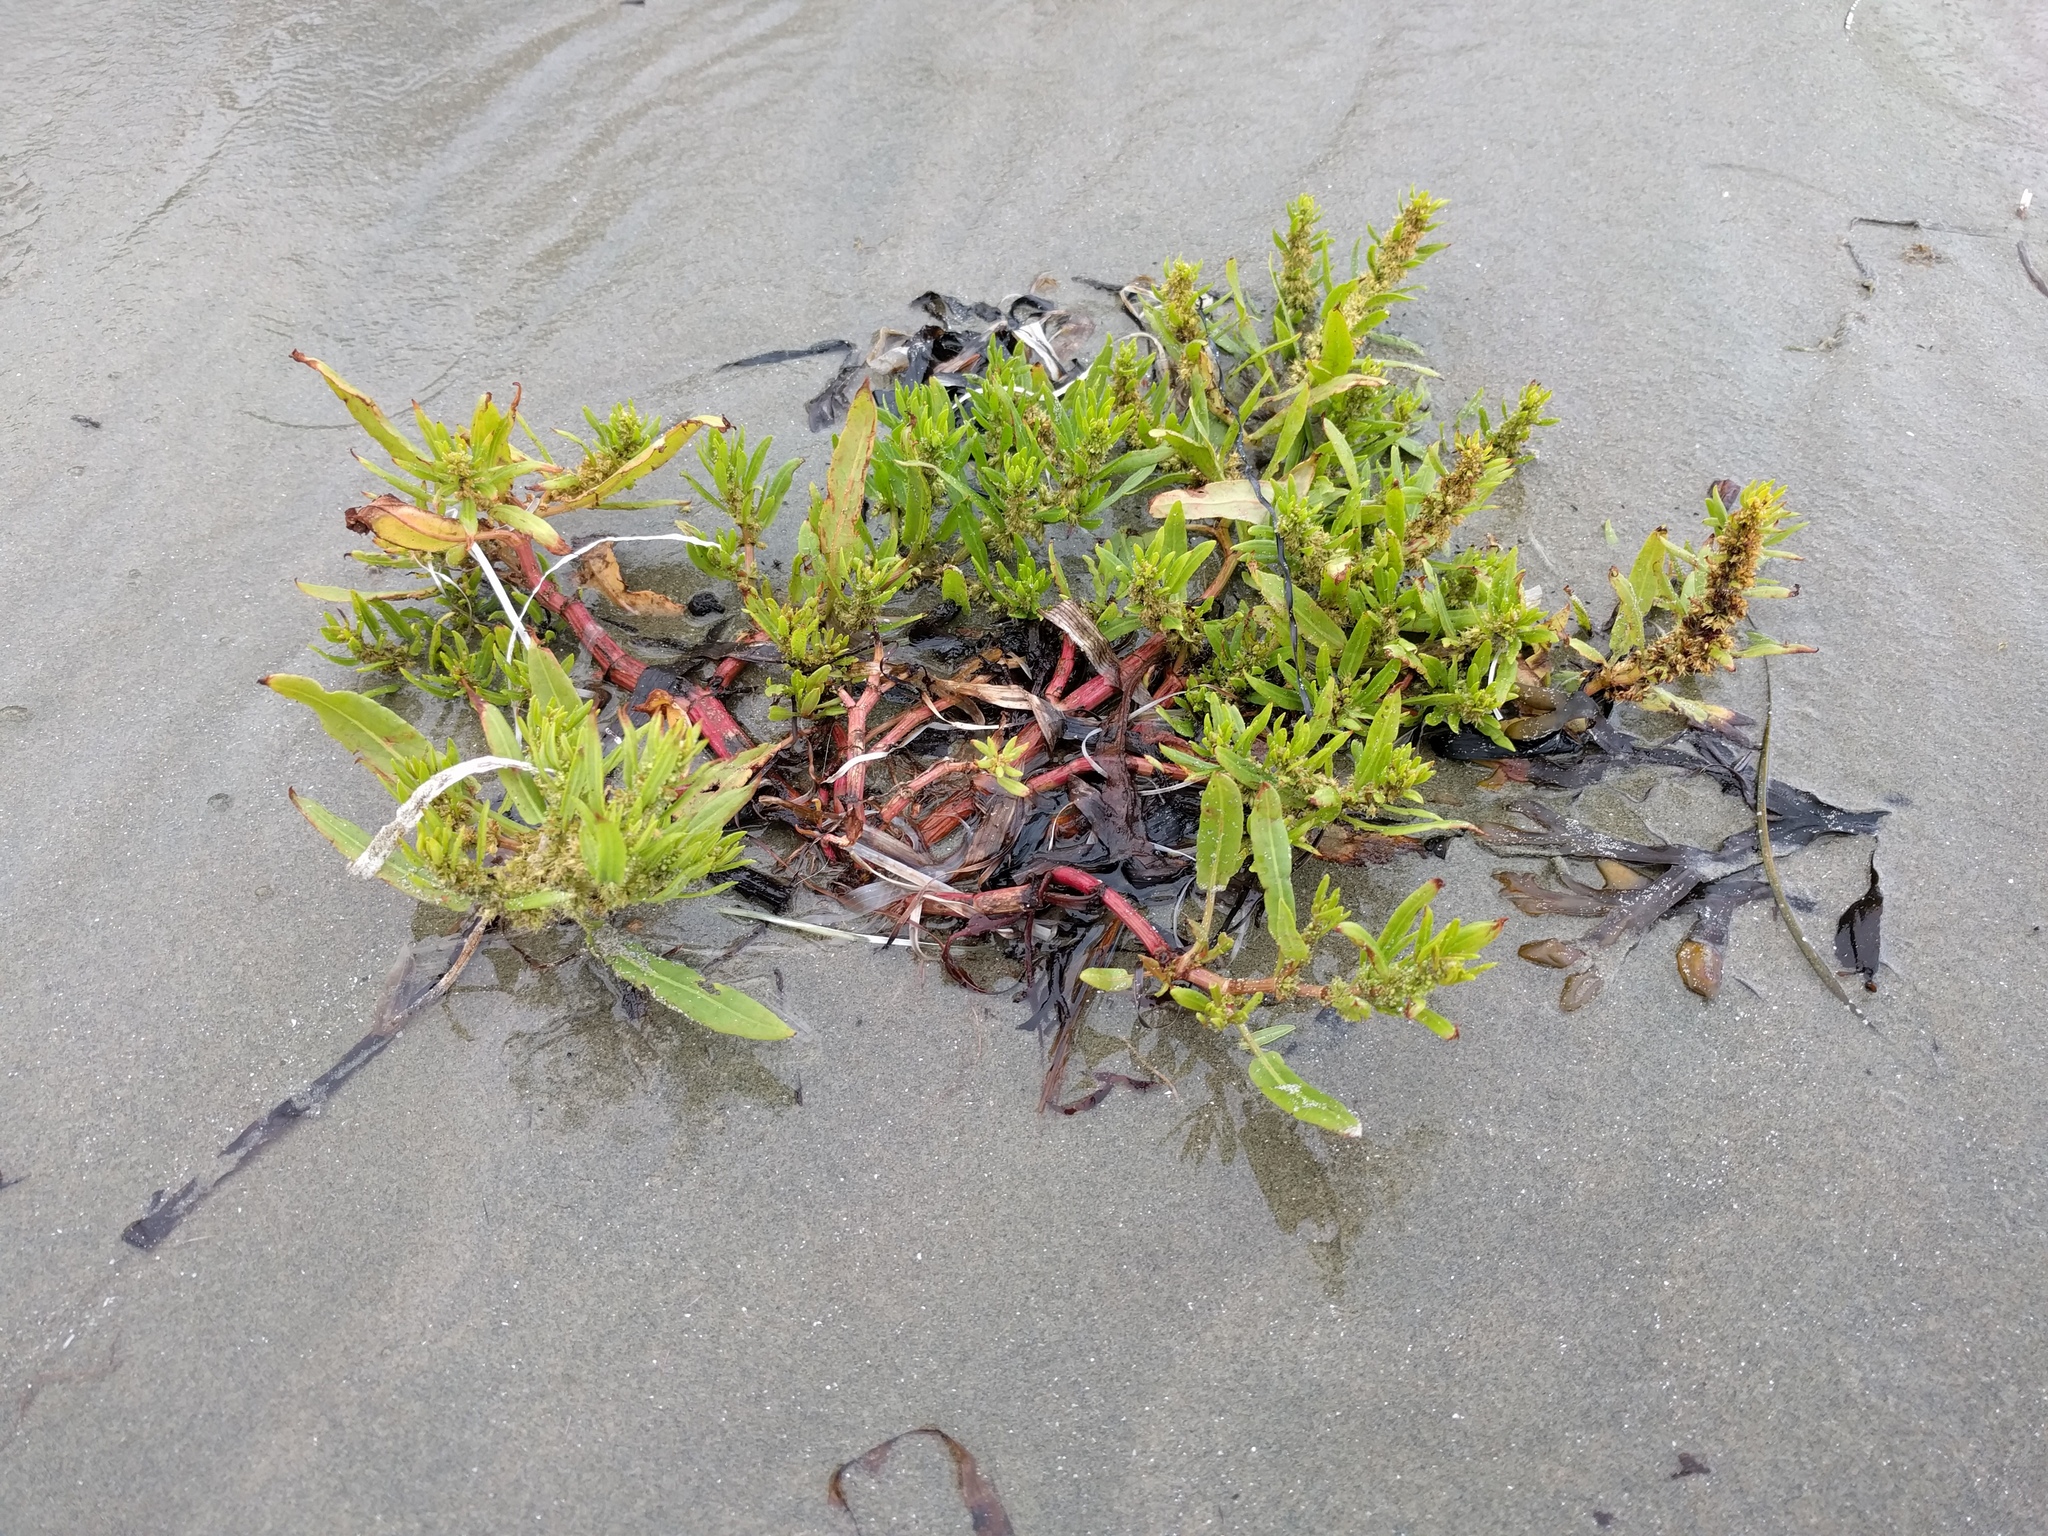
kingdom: Plantae
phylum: Tracheophyta
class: Magnoliopsida
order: Caryophyllales
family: Polygonaceae
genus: Rumex
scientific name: Rumex maritimus
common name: Golden dock
